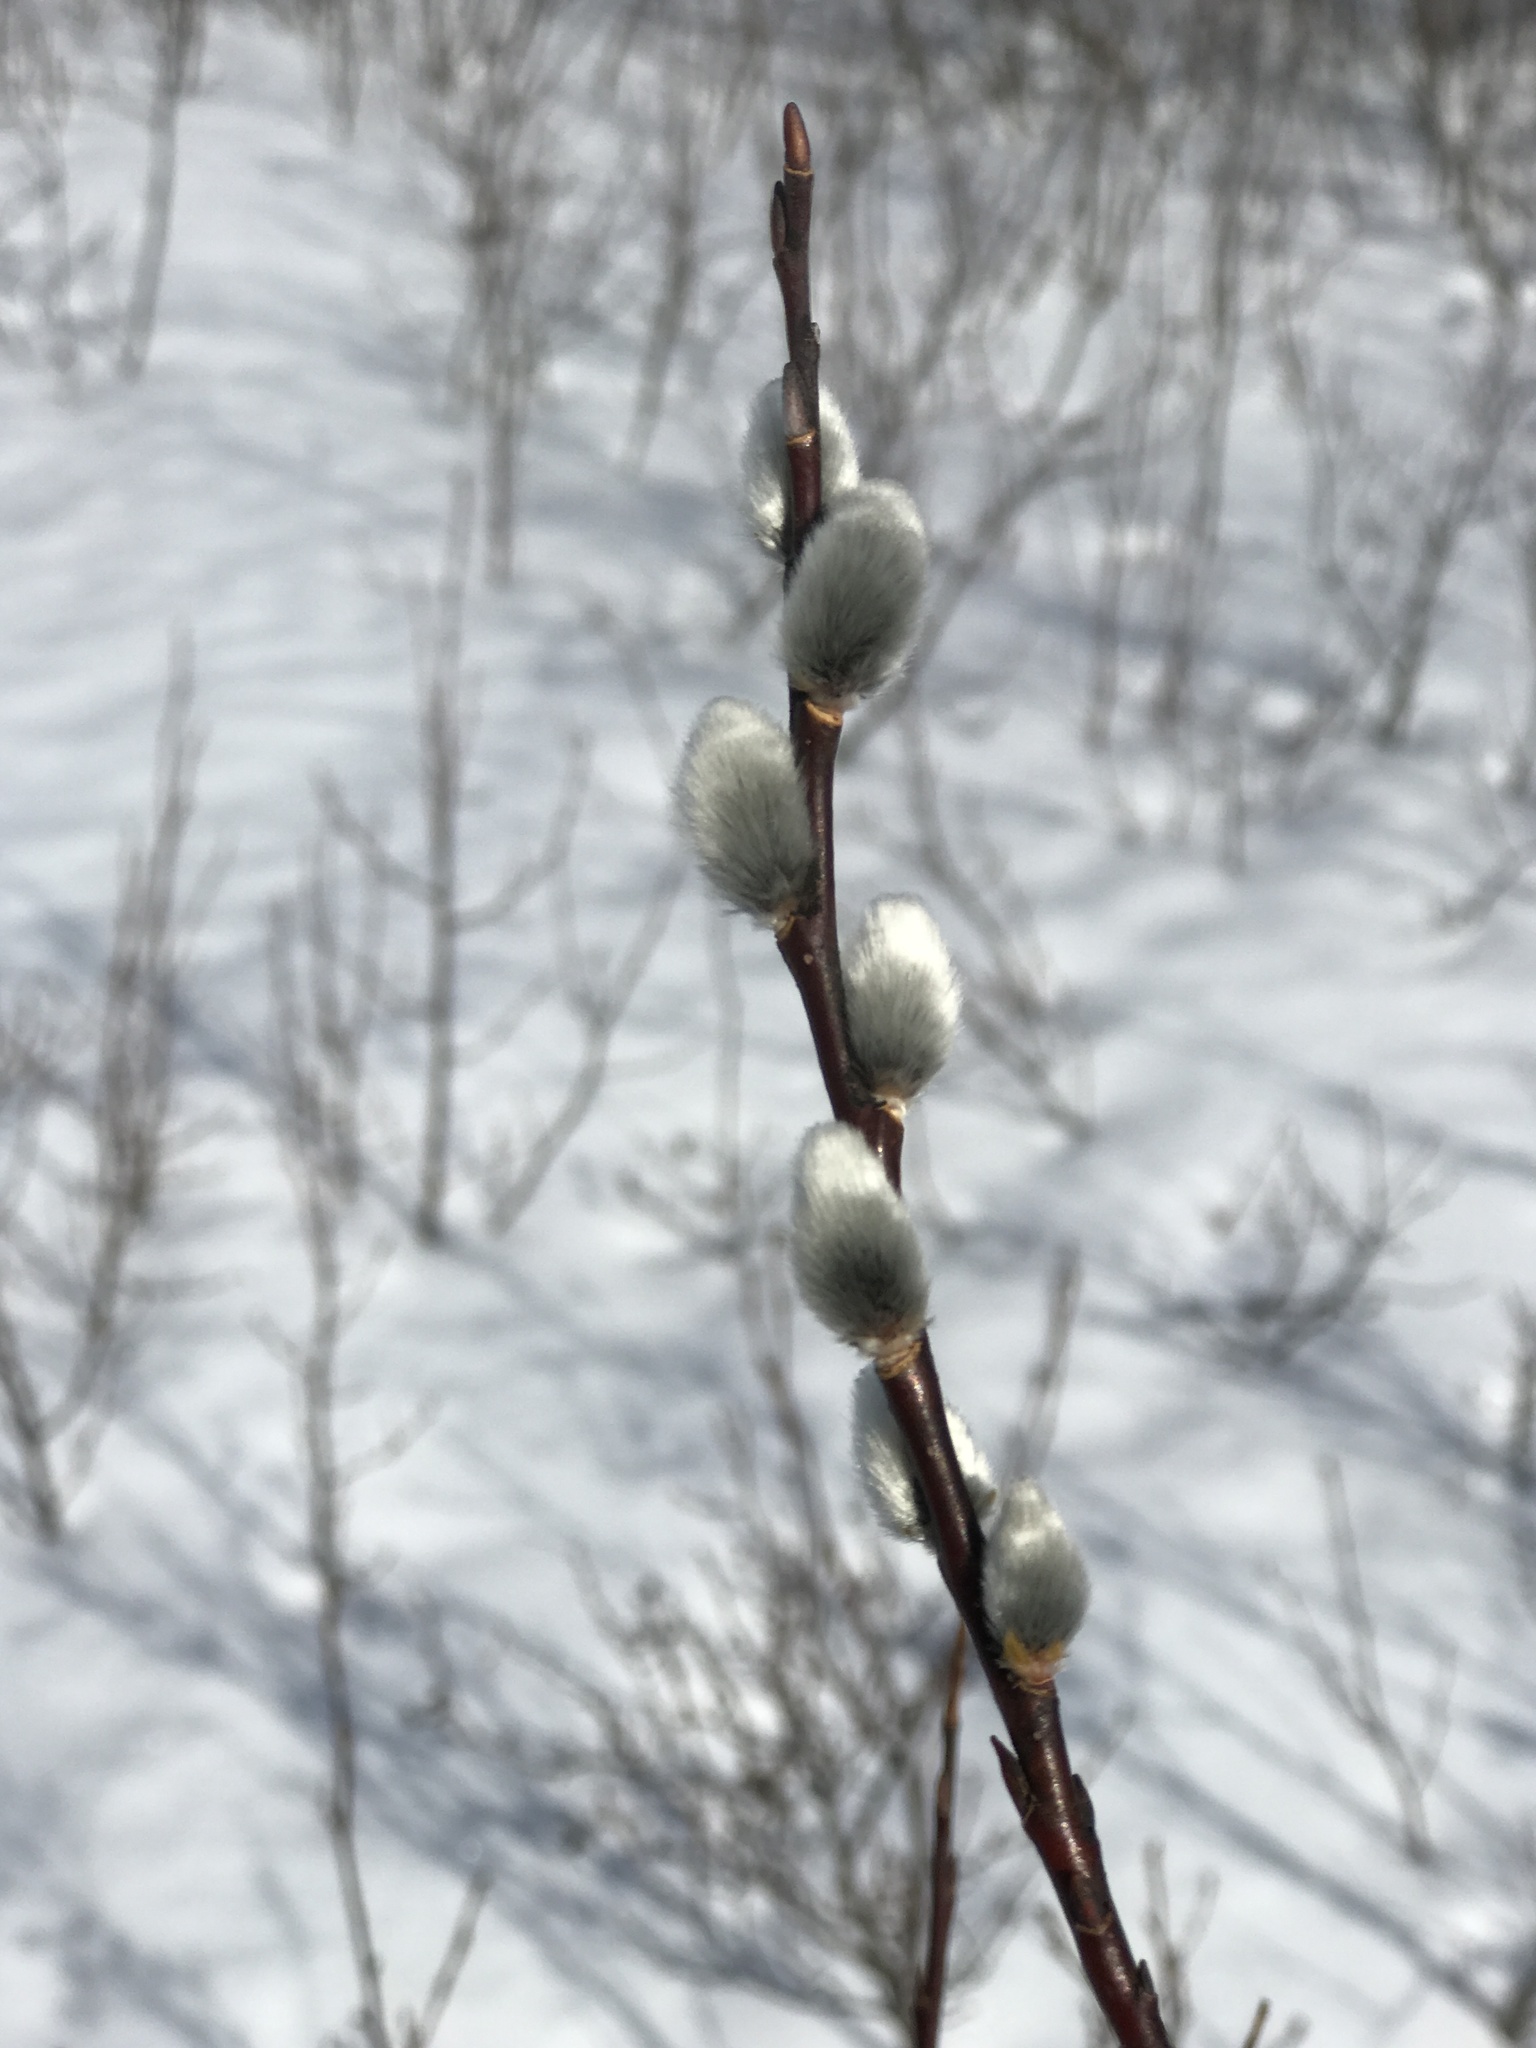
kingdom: Plantae
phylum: Tracheophyta
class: Magnoliopsida
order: Malpighiales
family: Salicaceae
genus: Salix
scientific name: Salix discolor
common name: Glaucous willow
